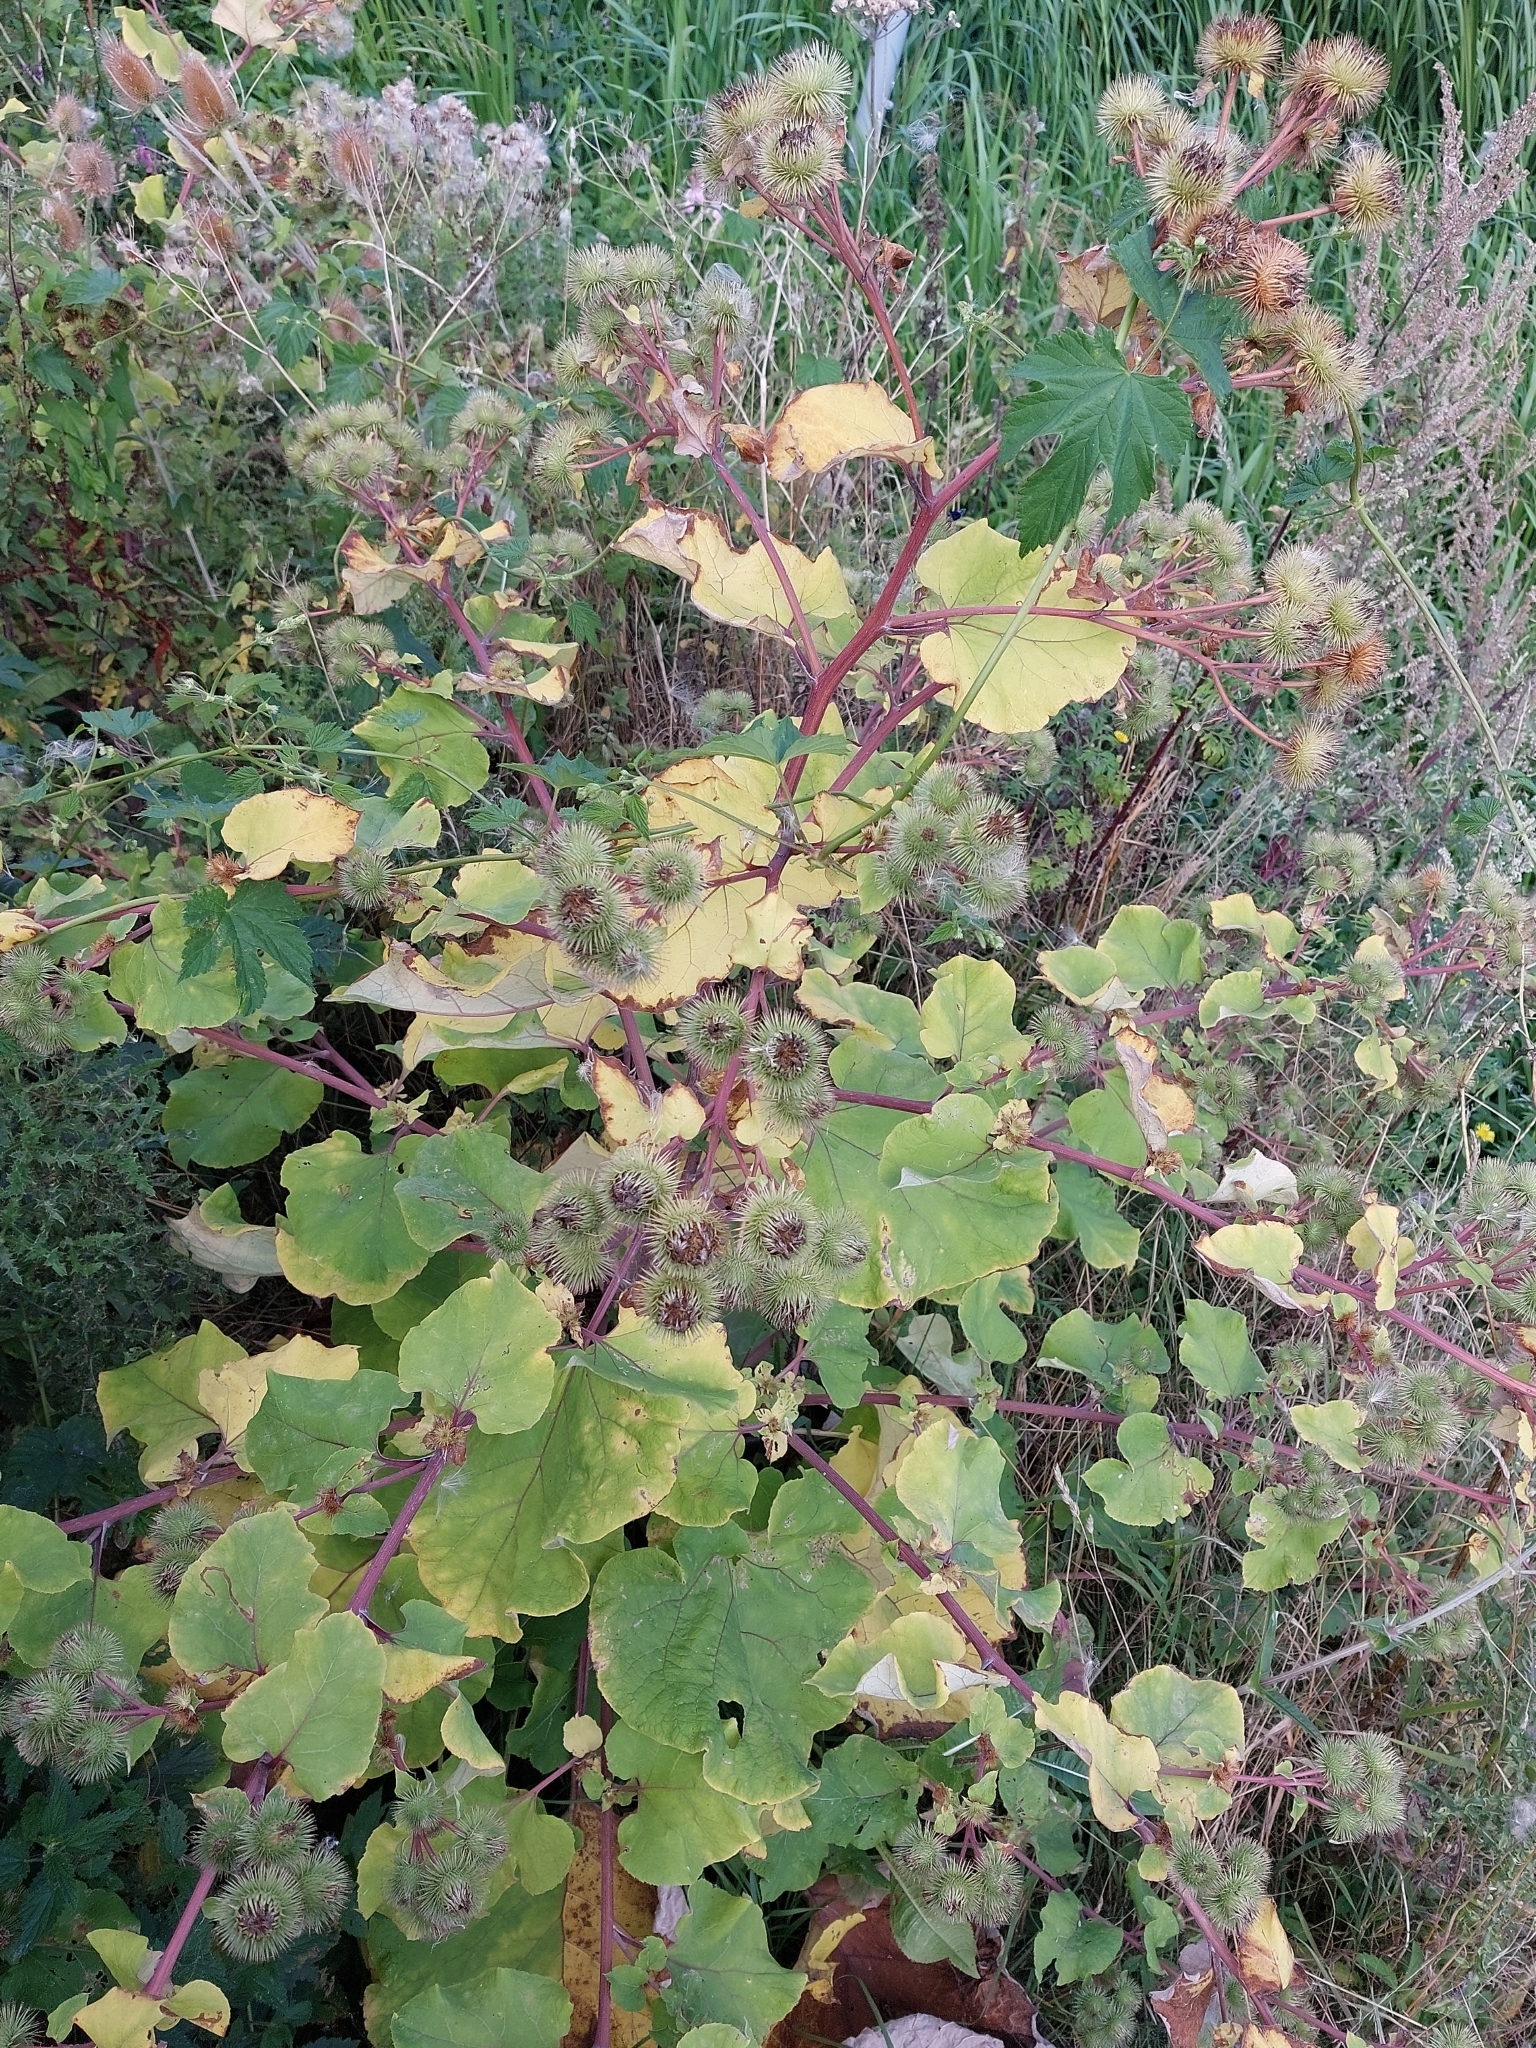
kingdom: Plantae
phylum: Tracheophyta
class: Magnoliopsida
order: Asterales
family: Asteraceae
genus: Arctium
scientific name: Arctium lappa
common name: Greater burdock
